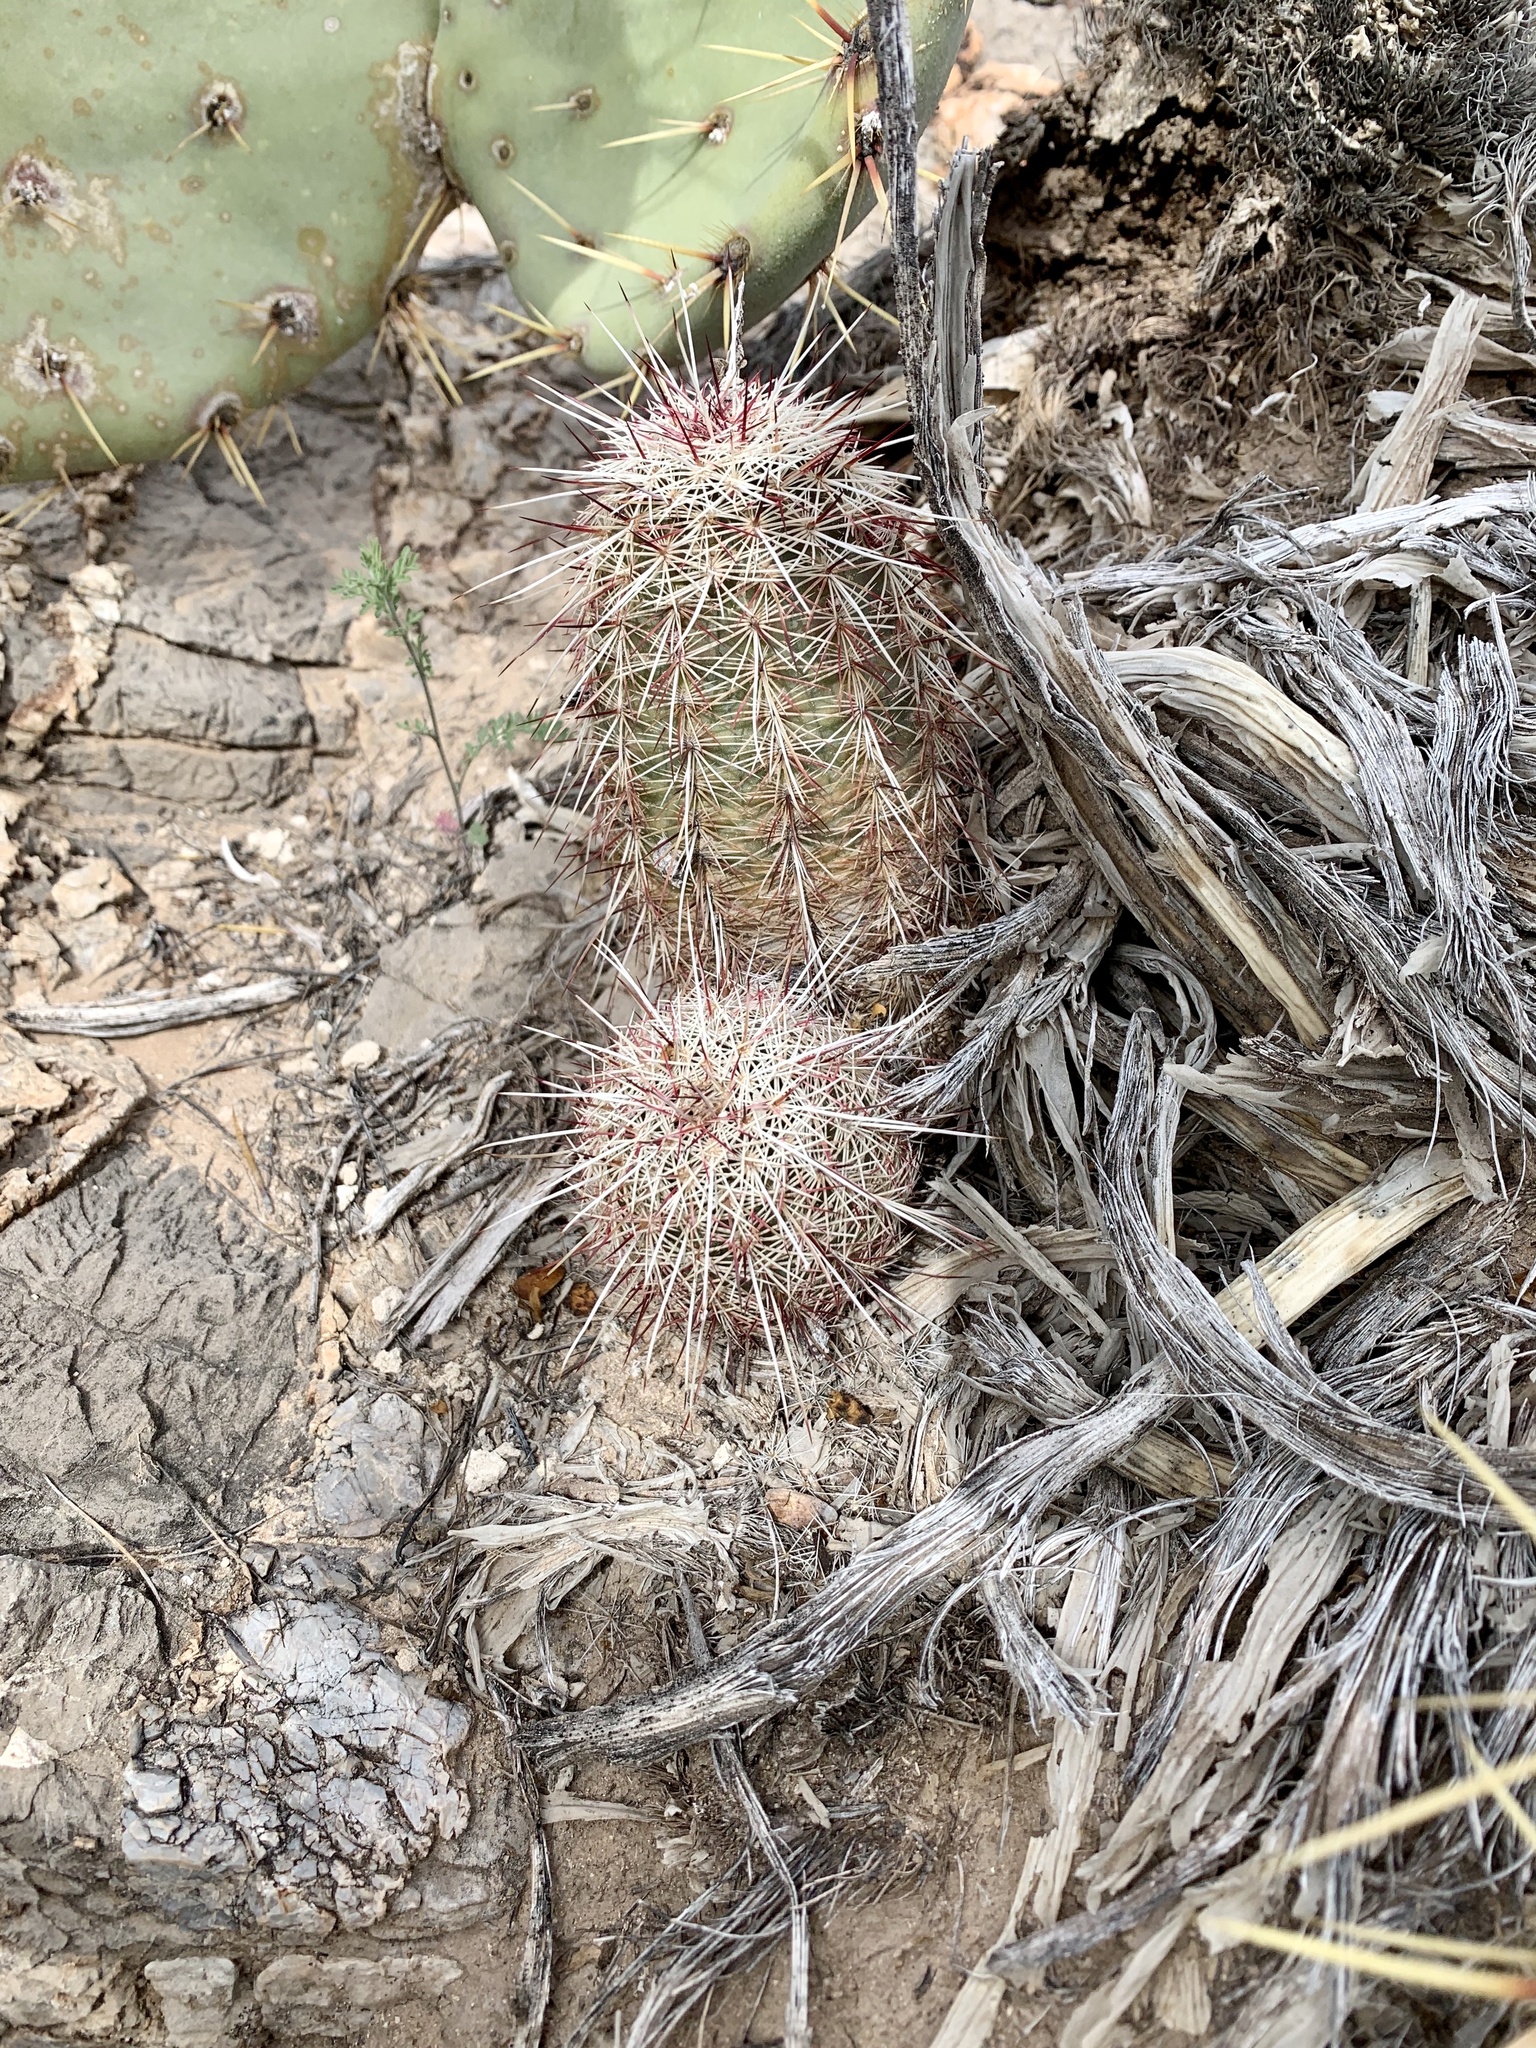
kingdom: Plantae
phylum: Tracheophyta
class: Magnoliopsida
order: Caryophyllales
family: Cactaceae
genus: Echinocereus
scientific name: Echinocereus viridiflorus
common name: Nylon hedgehog cactus
